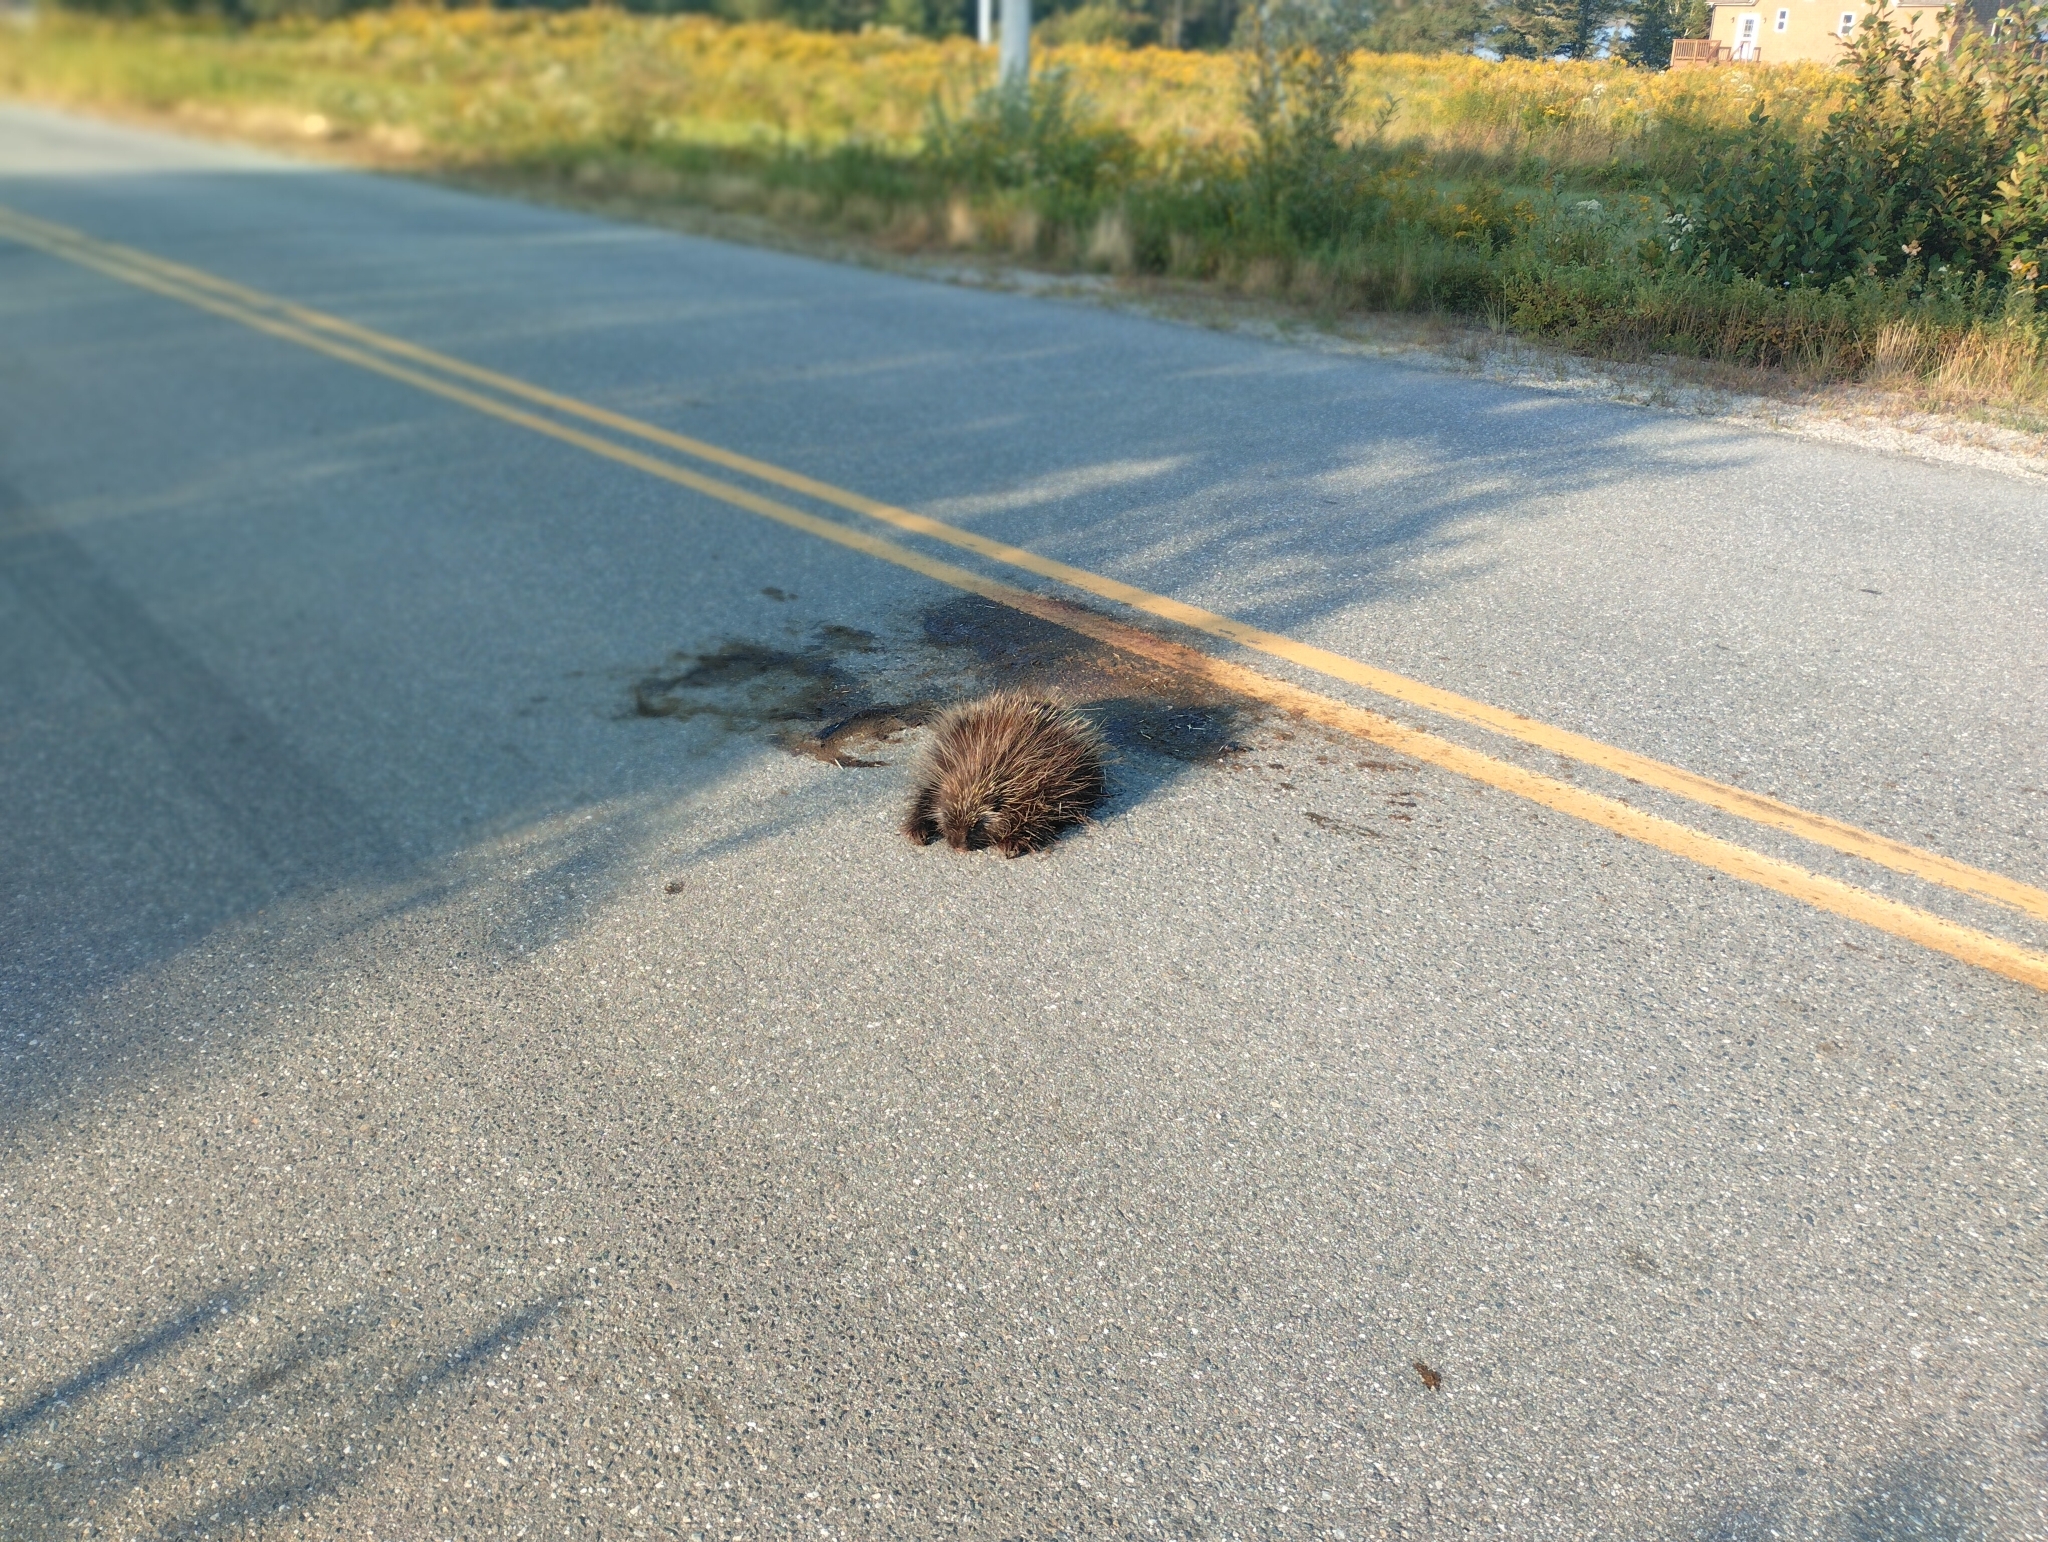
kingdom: Animalia
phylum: Chordata
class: Mammalia
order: Rodentia
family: Erethizontidae
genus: Erethizon
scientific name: Erethizon dorsatus
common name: North american porcupine
